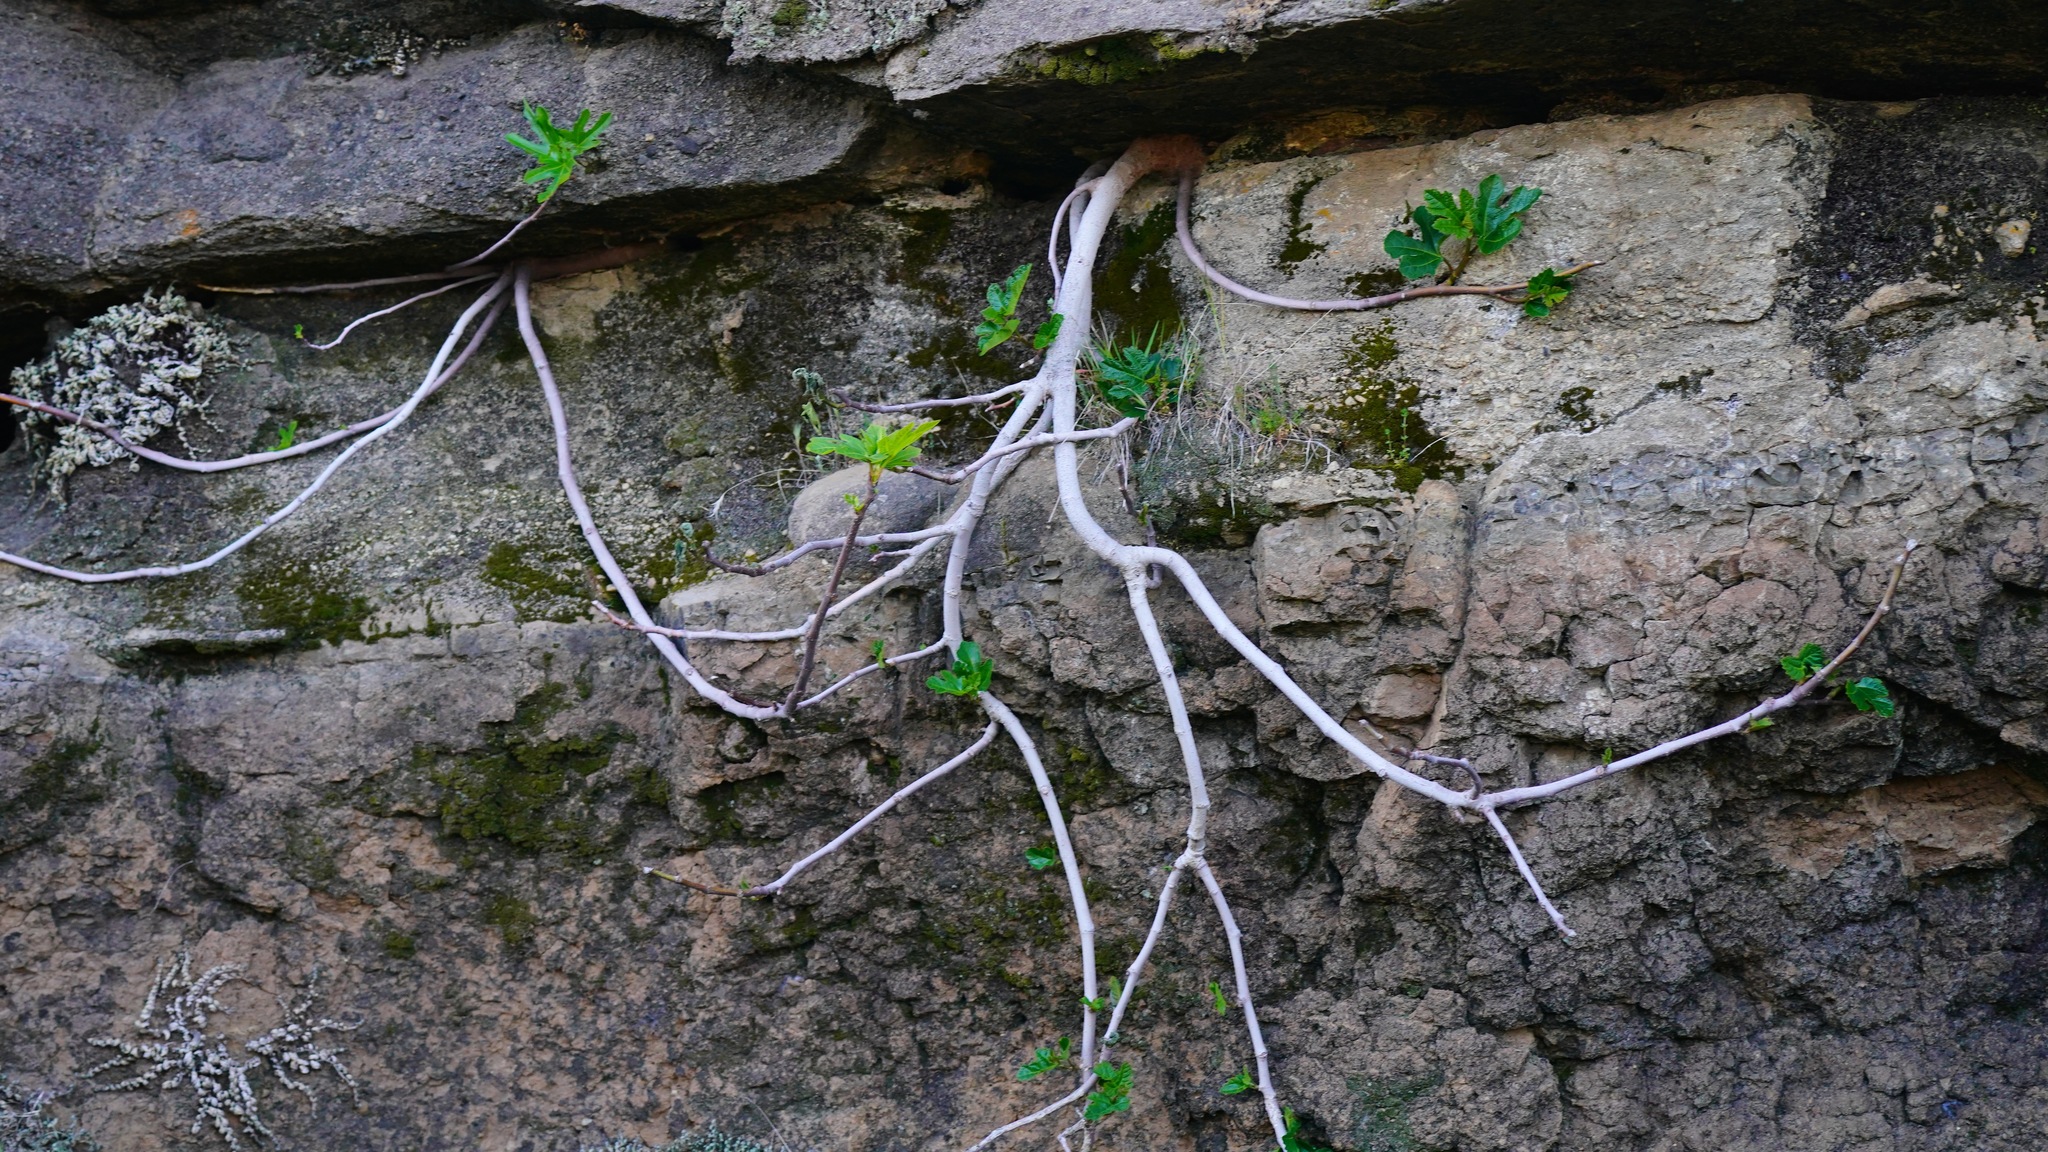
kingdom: Plantae
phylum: Tracheophyta
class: Magnoliopsida
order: Rosales
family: Moraceae
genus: Ficus
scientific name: Ficus carica
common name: Fig
